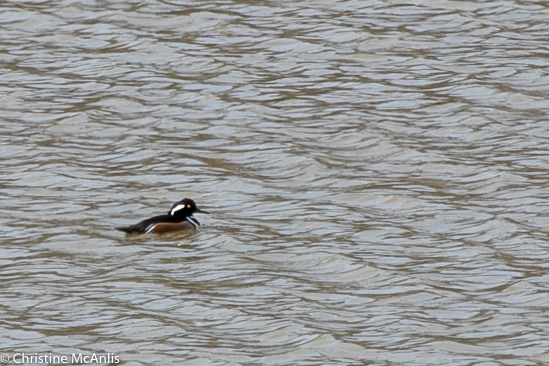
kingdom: Animalia
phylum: Chordata
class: Aves
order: Anseriformes
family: Anatidae
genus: Lophodytes
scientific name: Lophodytes cucullatus
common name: Hooded merganser
